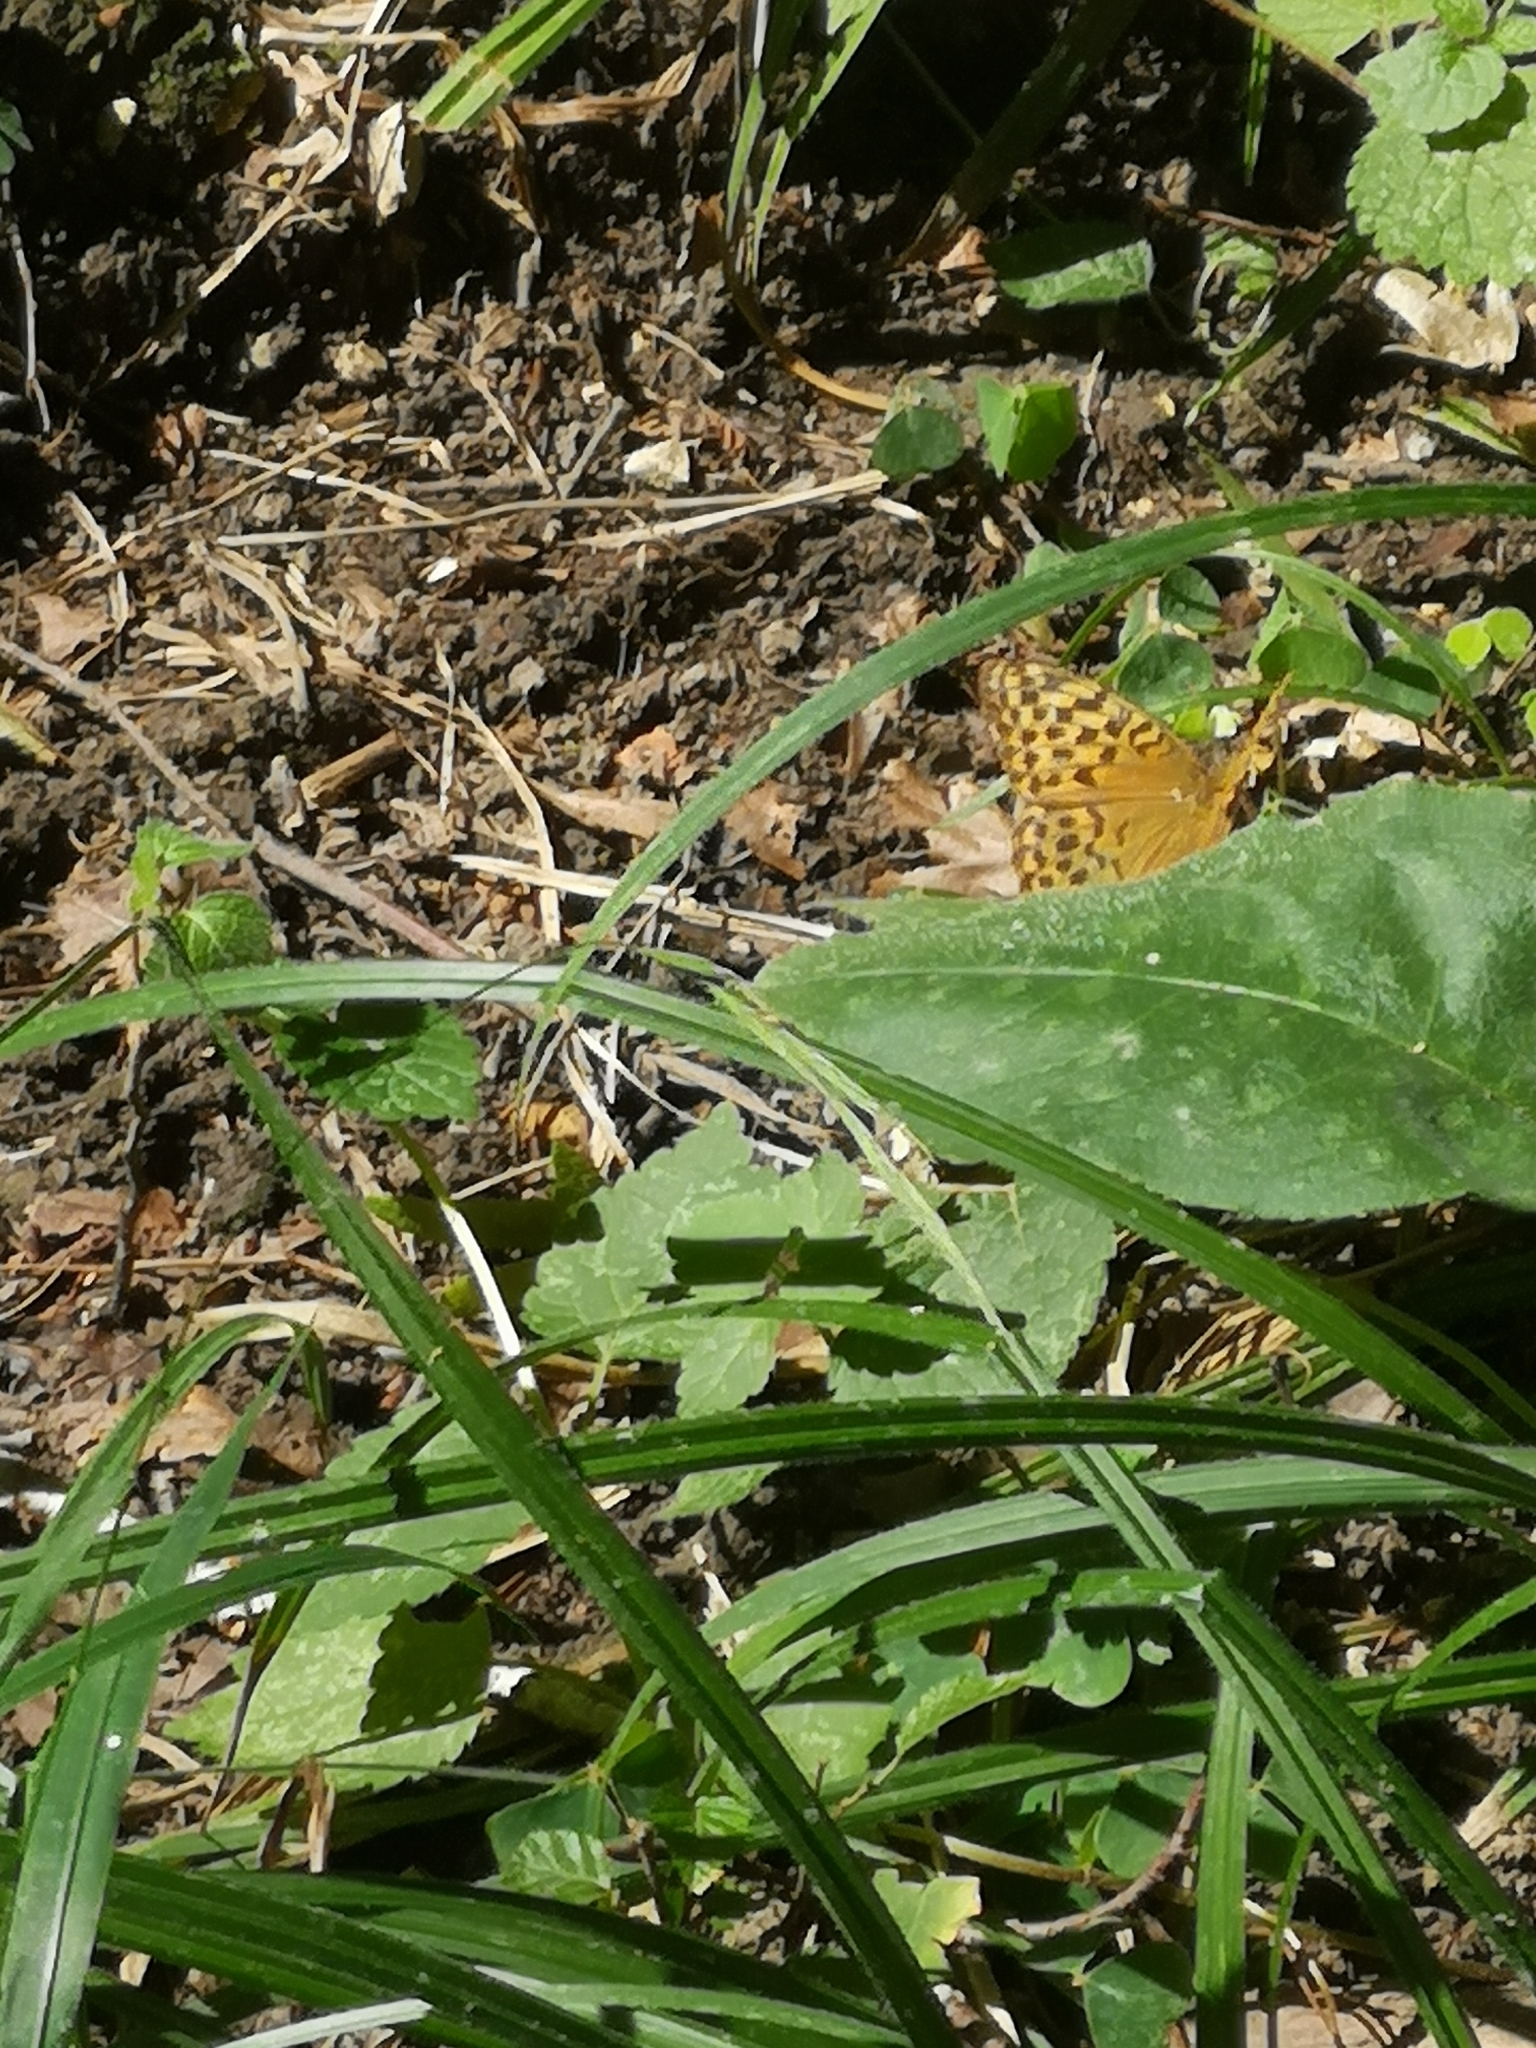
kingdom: Animalia
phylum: Arthropoda
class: Insecta
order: Lepidoptera
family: Nymphalidae
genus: Argynnis
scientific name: Argynnis paphia
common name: Silver-washed fritillary
